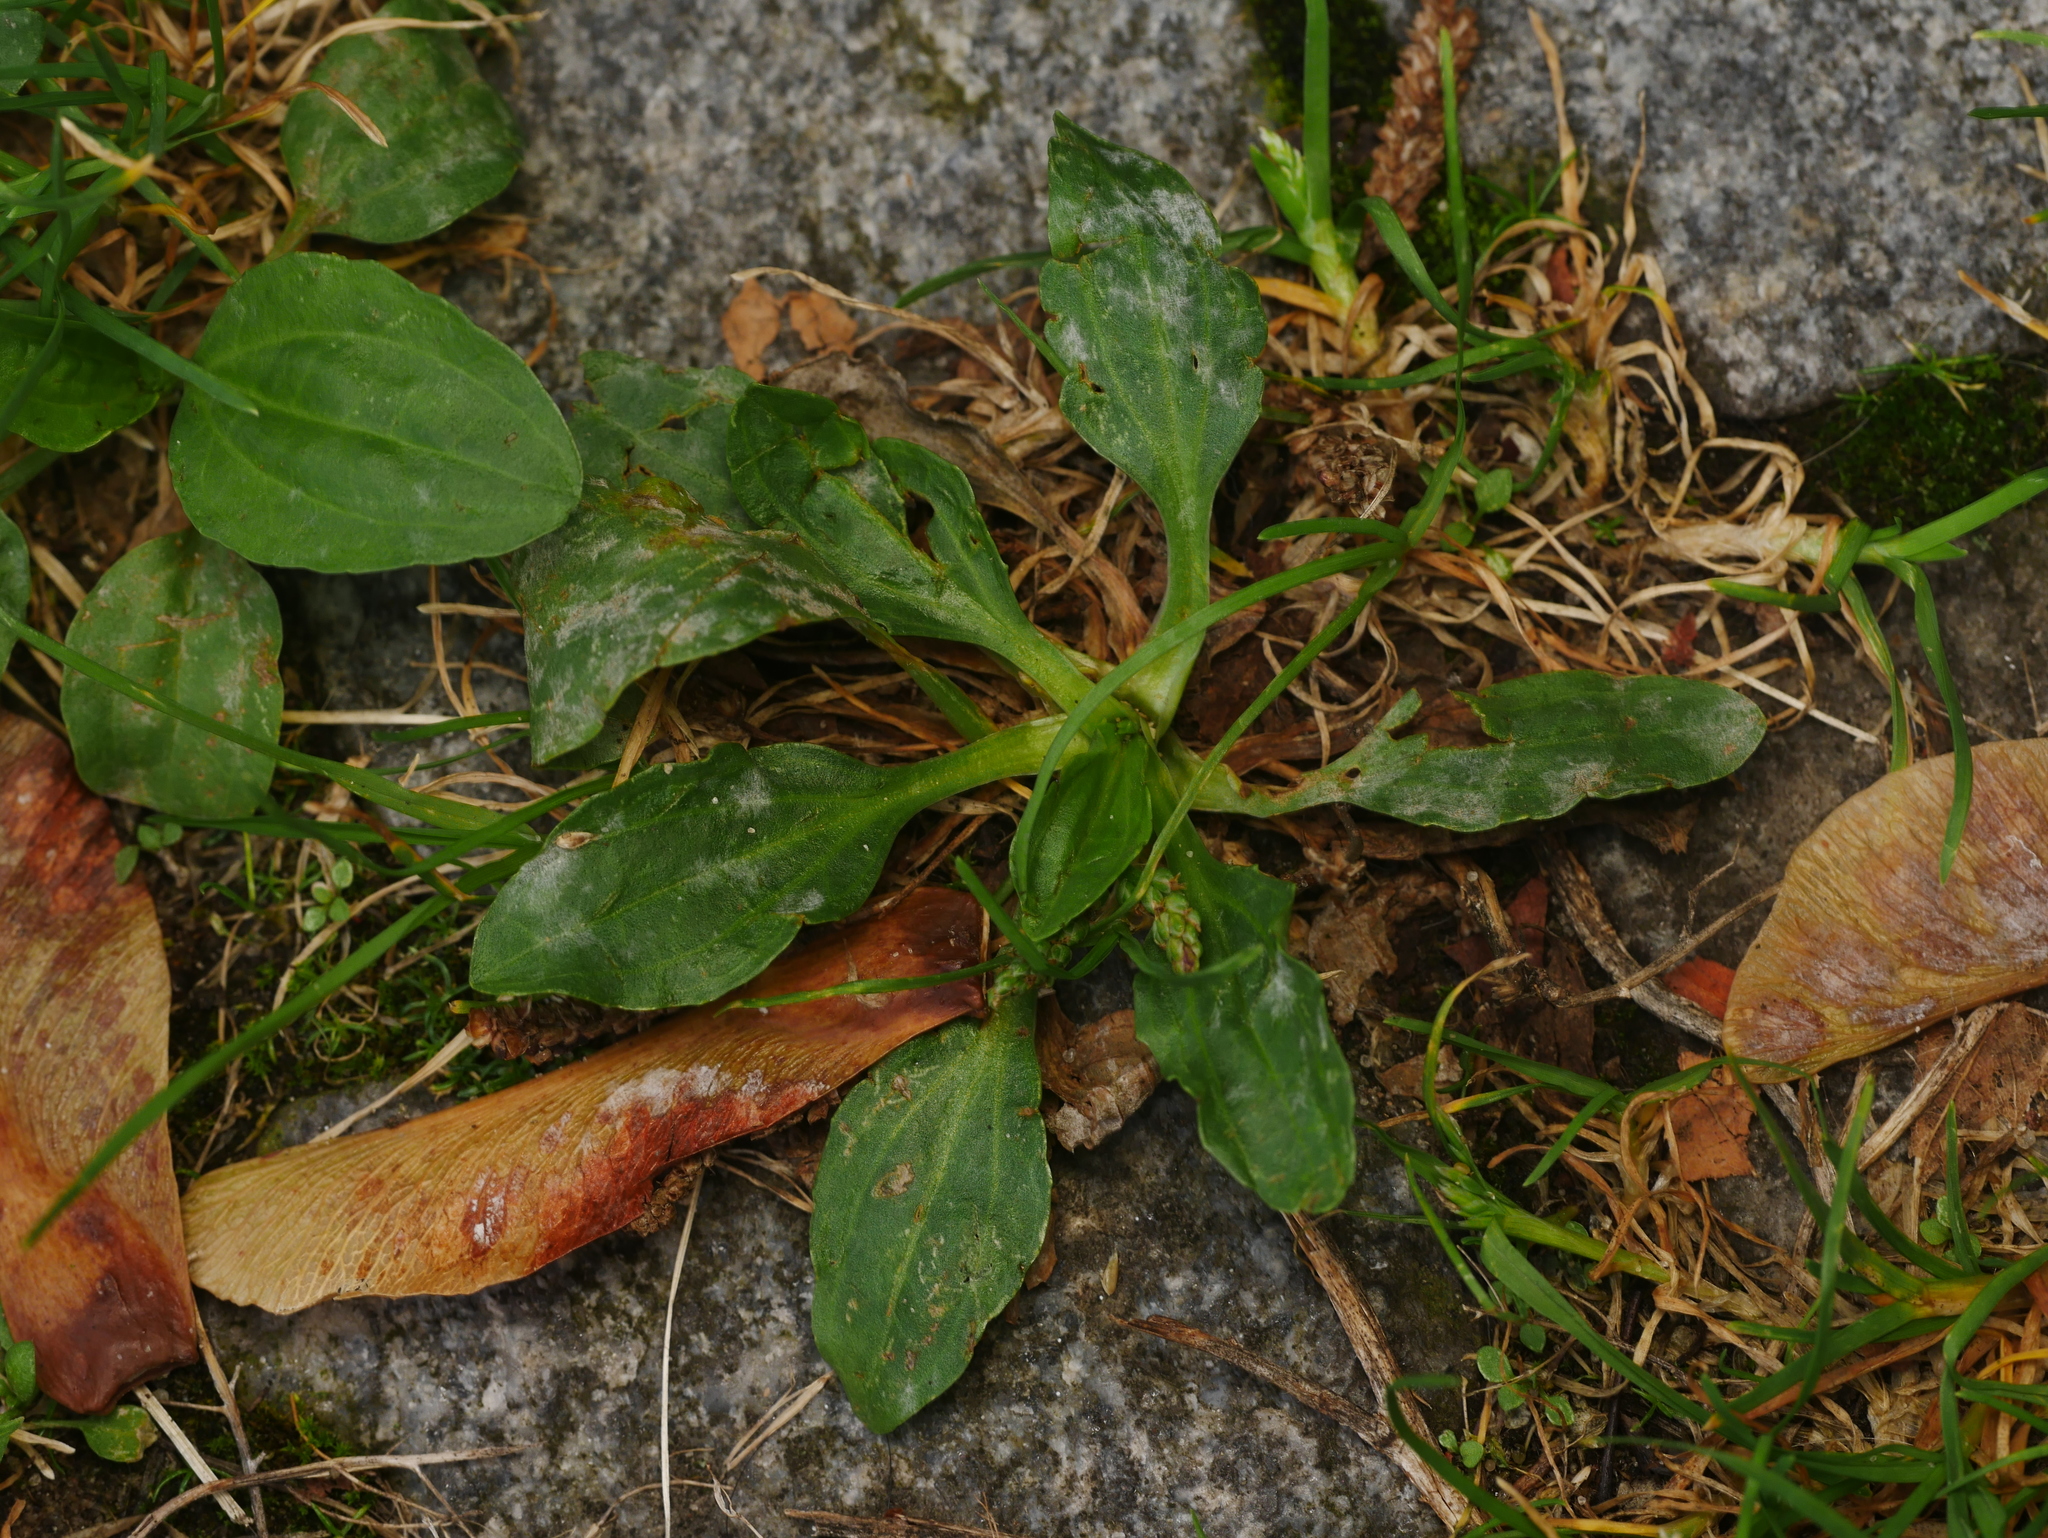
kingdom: Plantae
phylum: Tracheophyta
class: Magnoliopsida
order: Lamiales
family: Plantaginaceae
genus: Plantago
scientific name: Plantago major
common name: Common plantain
